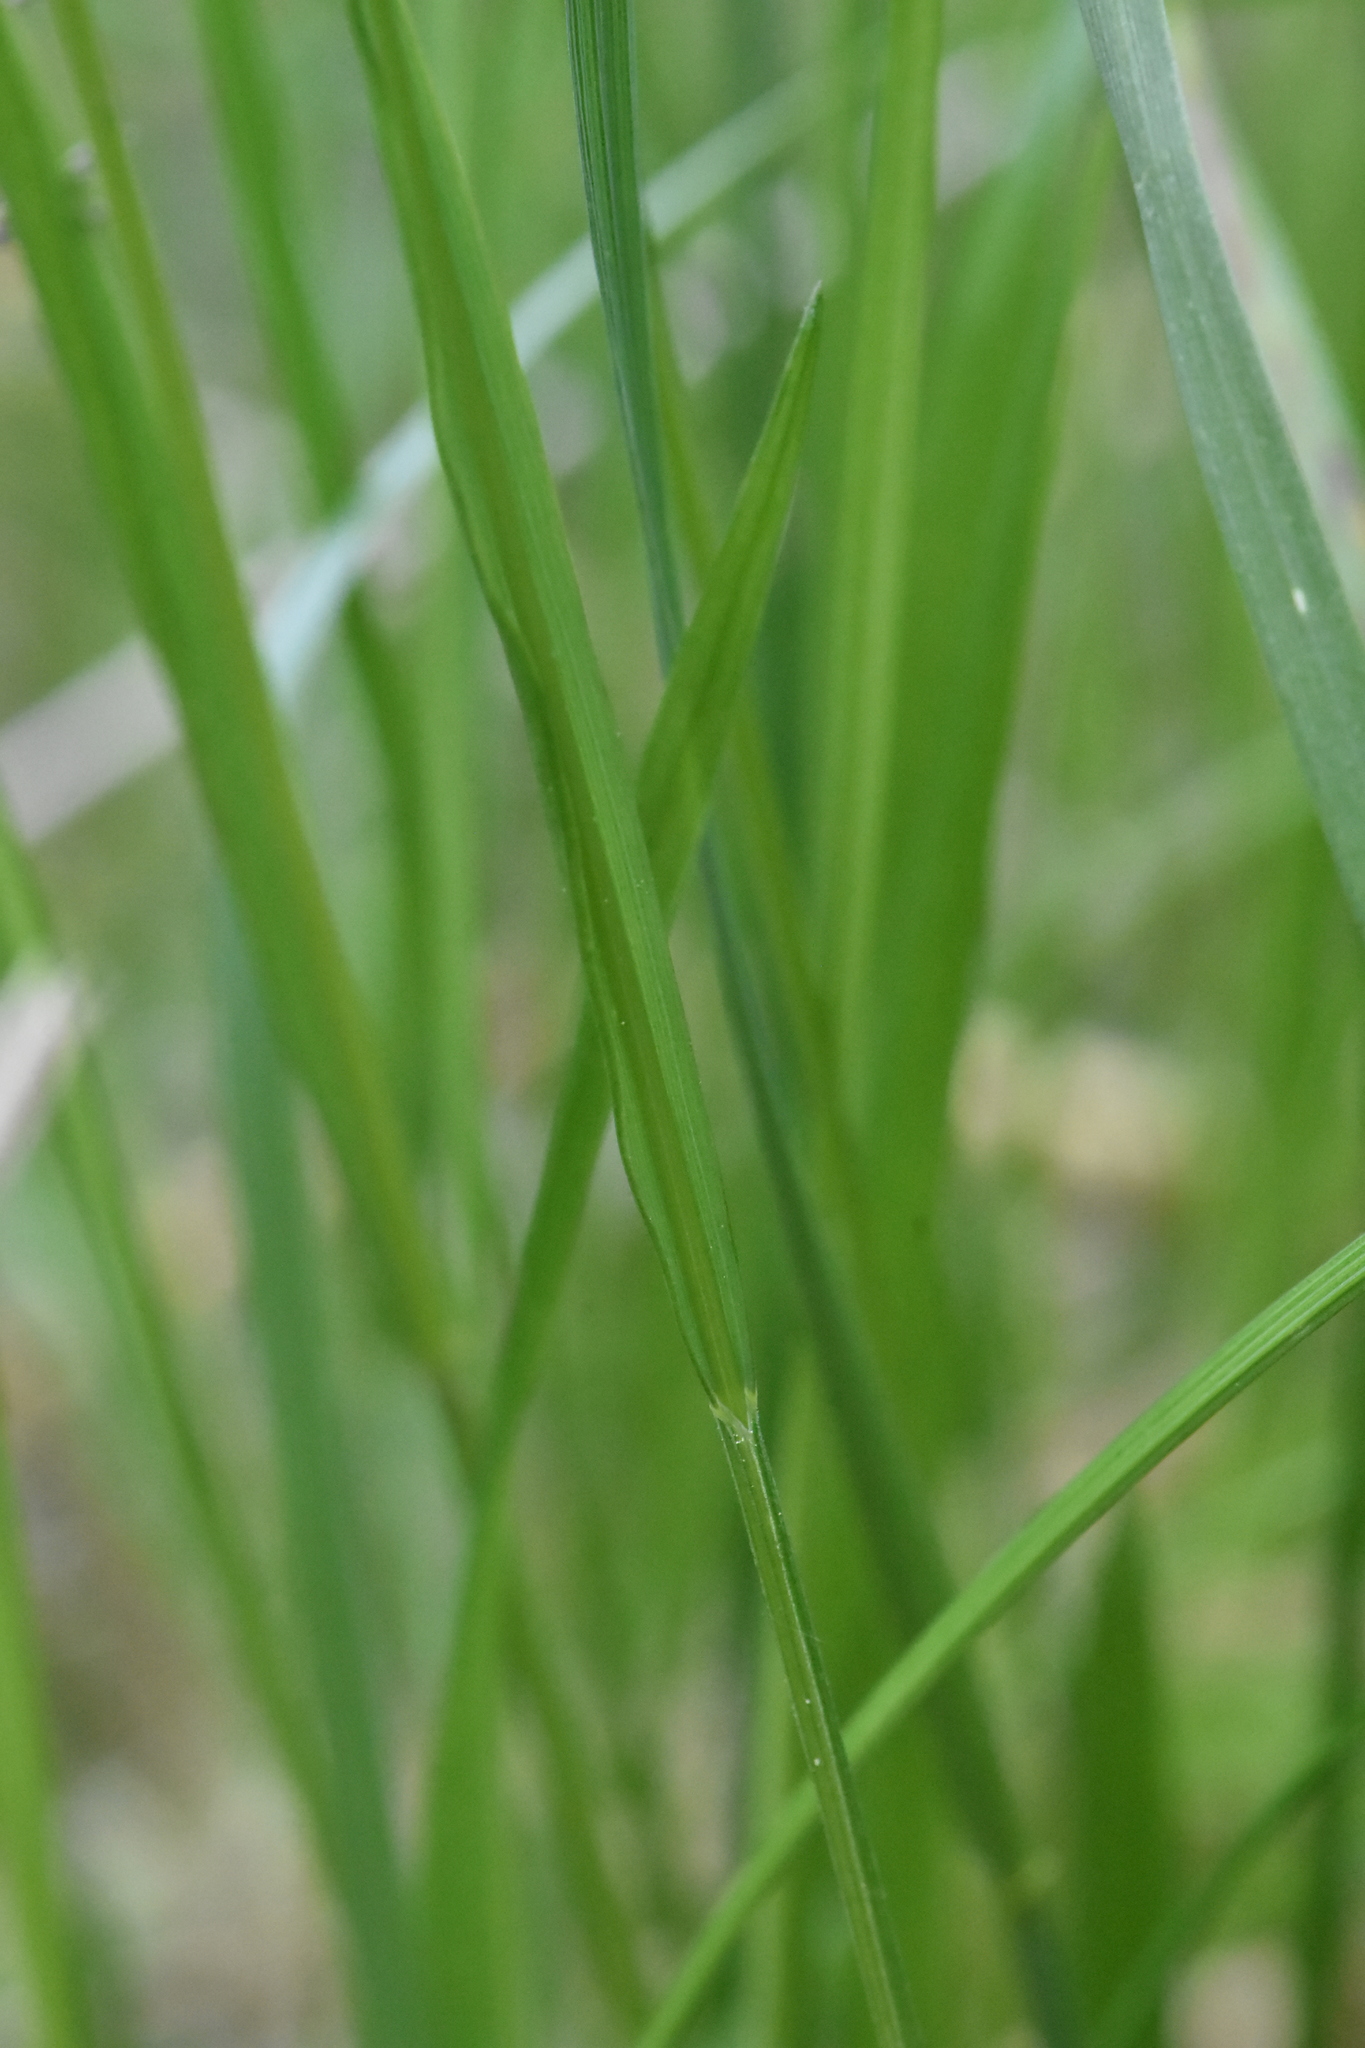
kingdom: Plantae
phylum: Tracheophyta
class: Liliopsida
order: Poales
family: Poaceae
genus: Melica
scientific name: Melica nutans
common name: Mountain melick
